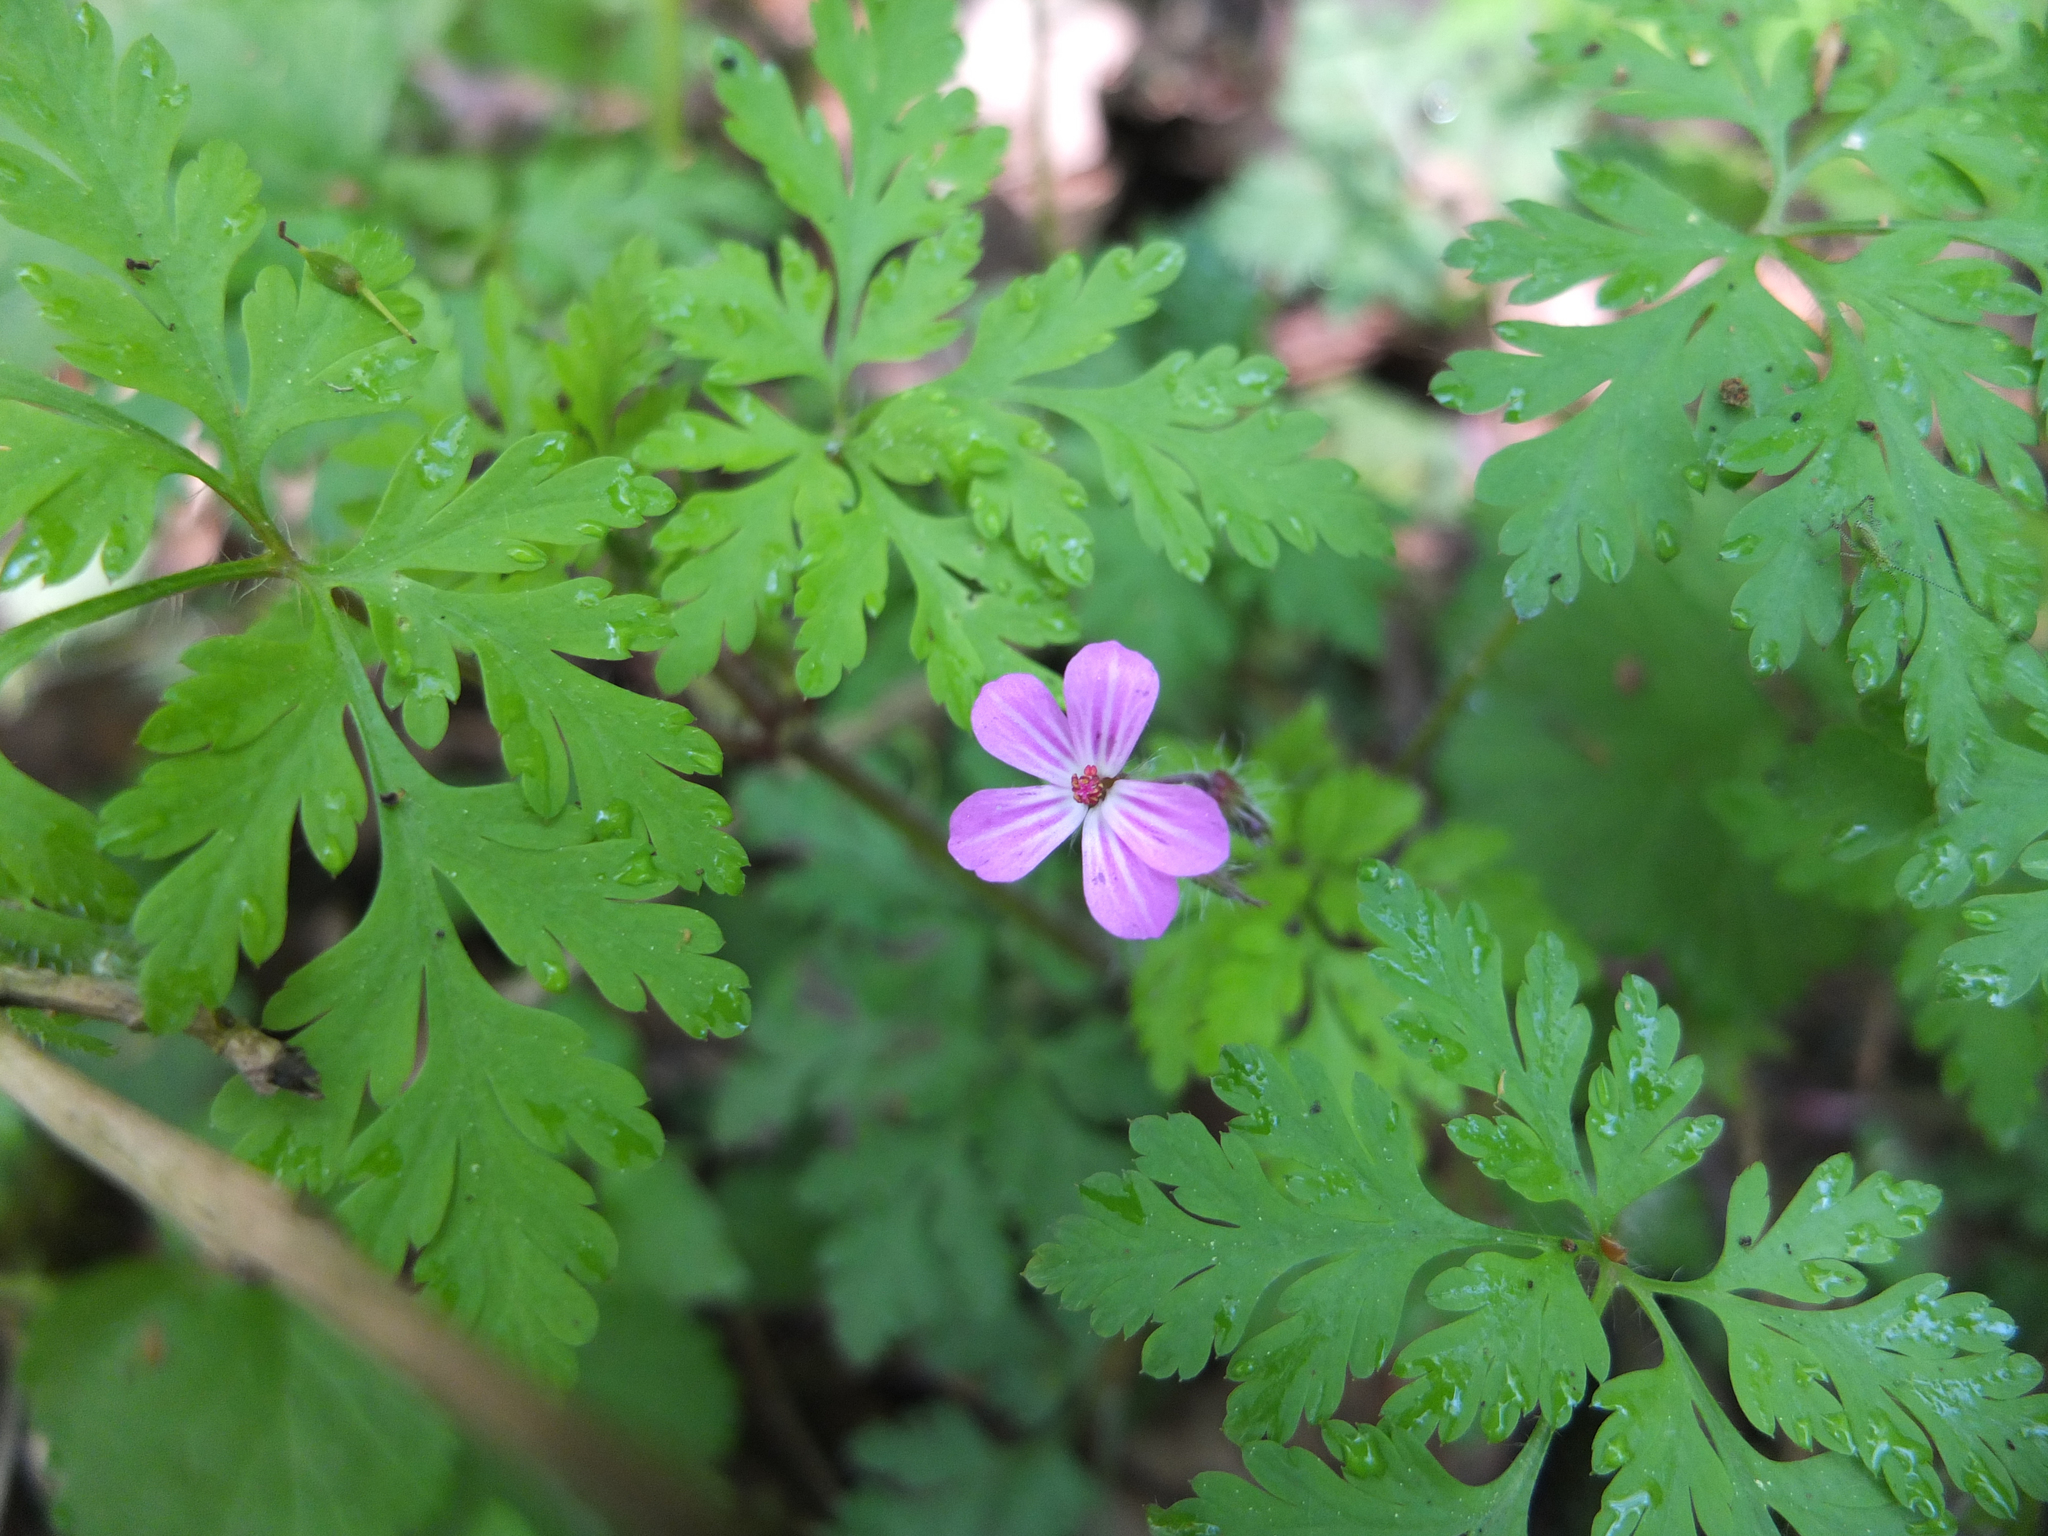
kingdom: Plantae
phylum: Tracheophyta
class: Magnoliopsida
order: Geraniales
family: Geraniaceae
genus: Geranium
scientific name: Geranium robertianum
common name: Herb-robert
